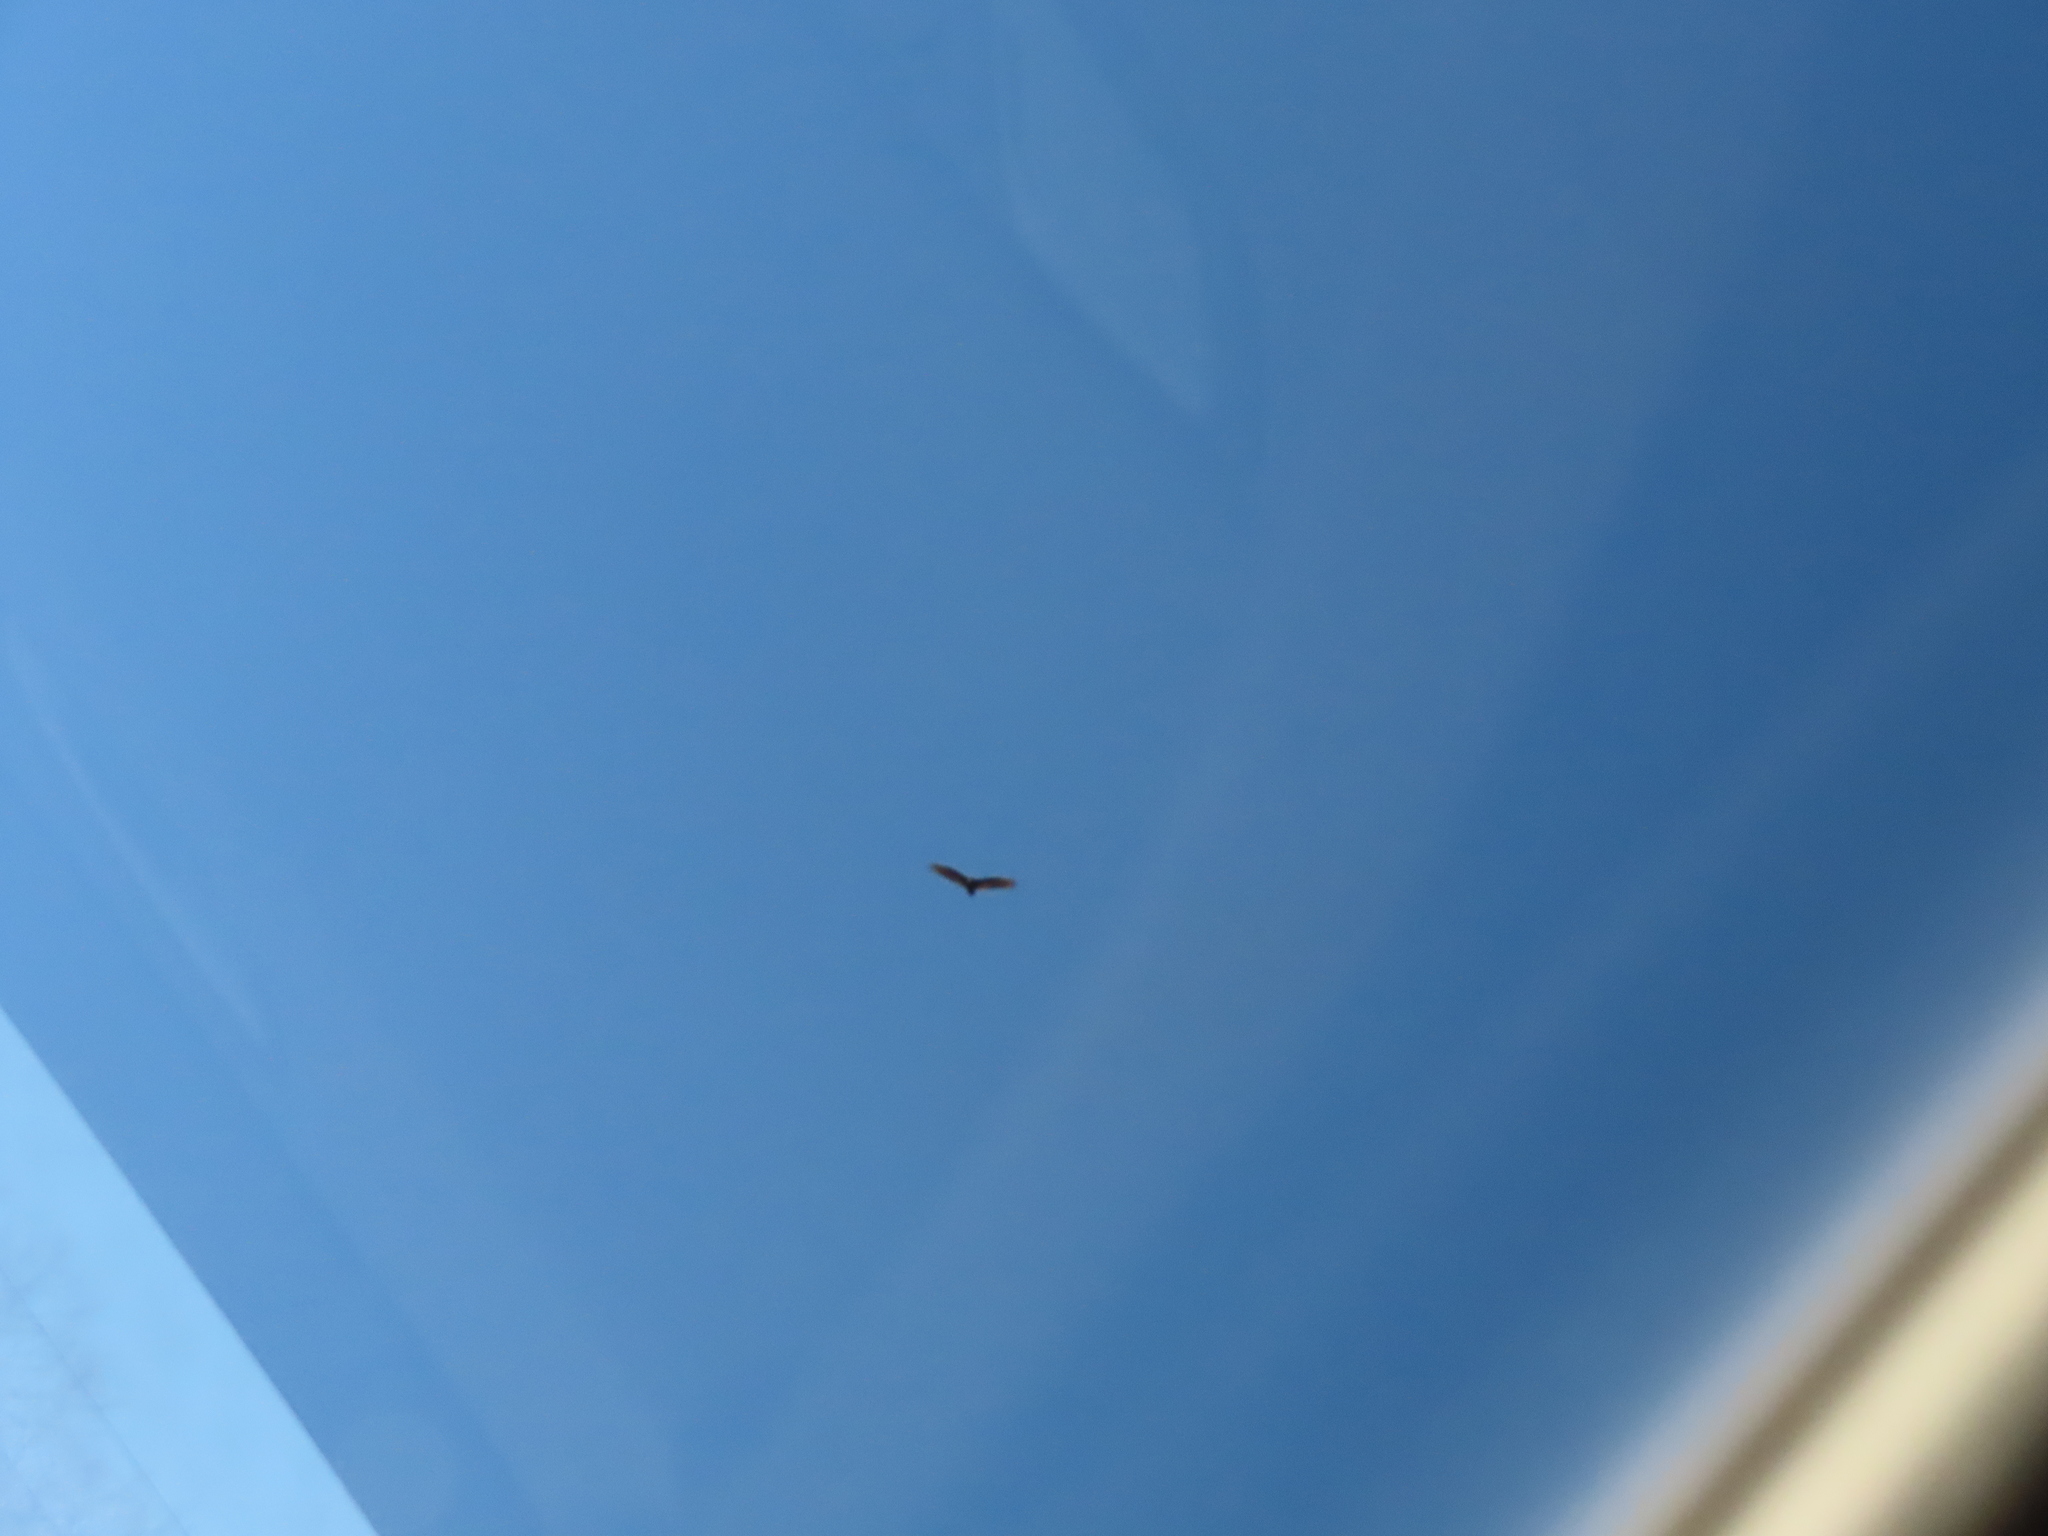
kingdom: Animalia
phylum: Chordata
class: Aves
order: Accipitriformes
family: Cathartidae
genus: Cathartes
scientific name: Cathartes aura
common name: Turkey vulture
